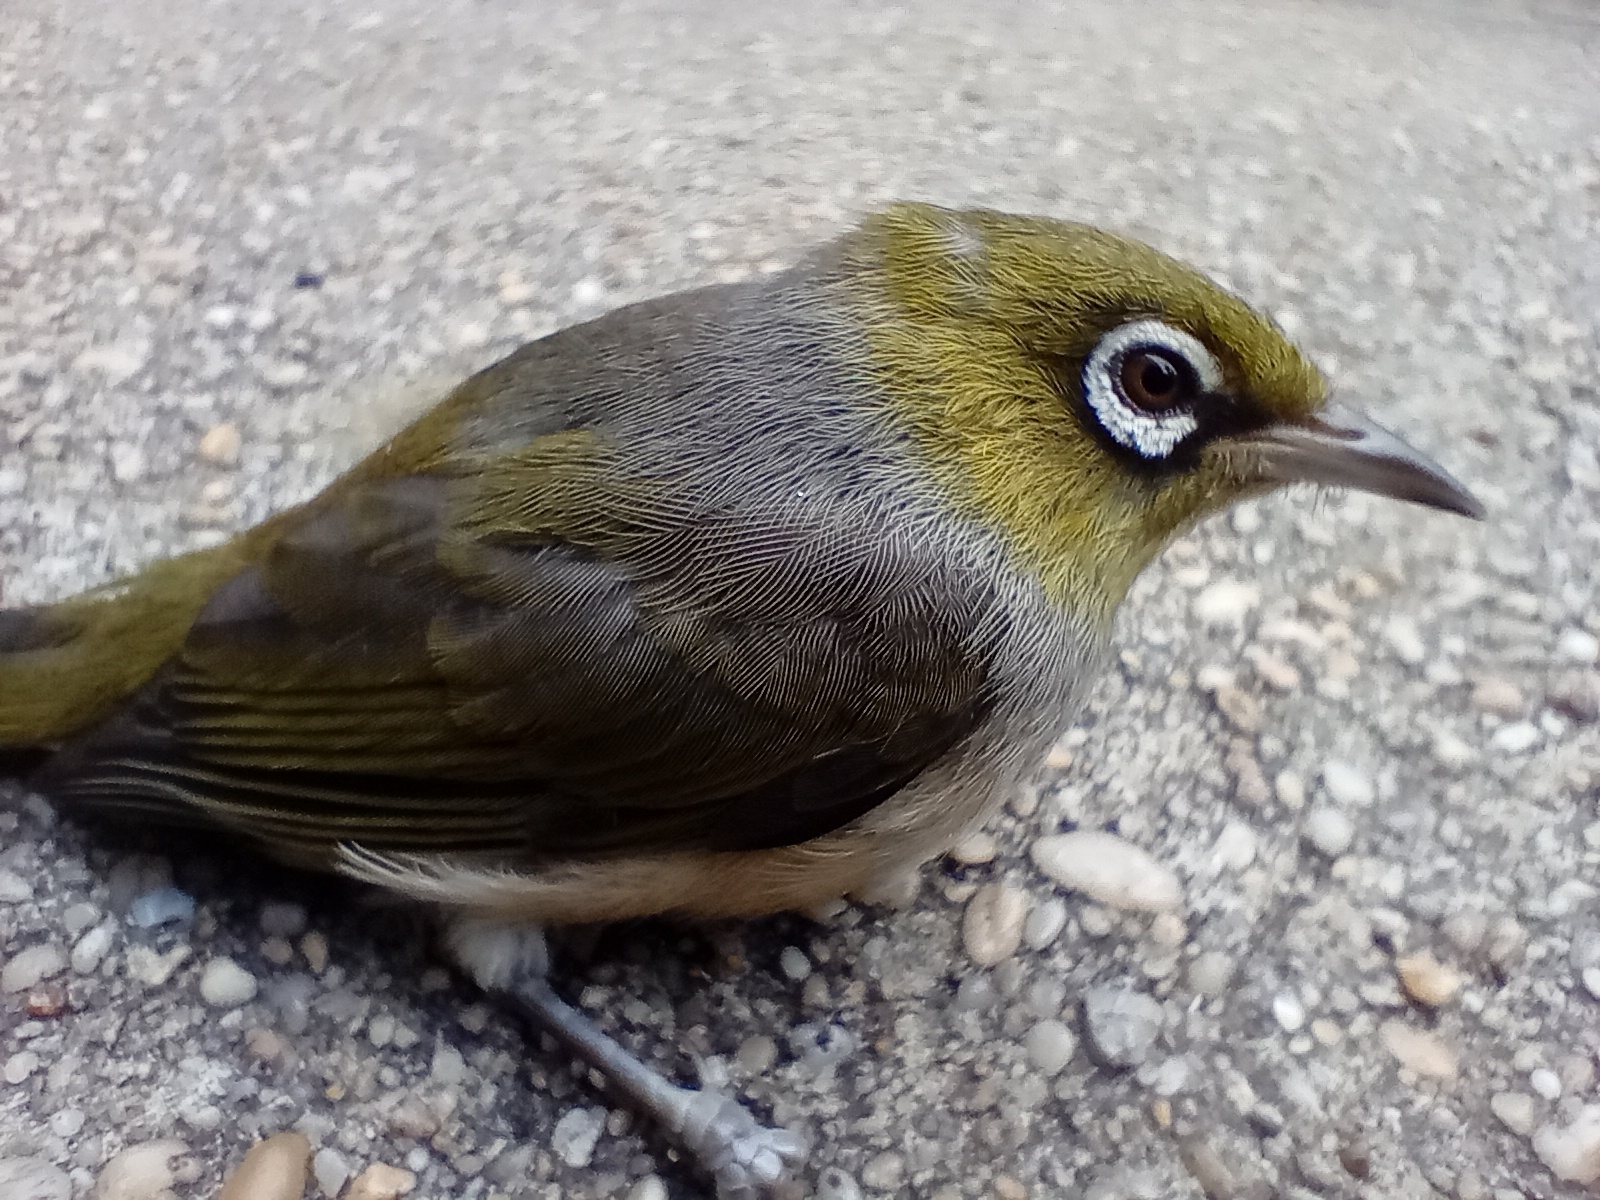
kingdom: Animalia
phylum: Chordata
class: Aves
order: Passeriformes
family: Zosteropidae
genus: Zosterops
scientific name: Zosterops lateralis
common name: Silvereye
